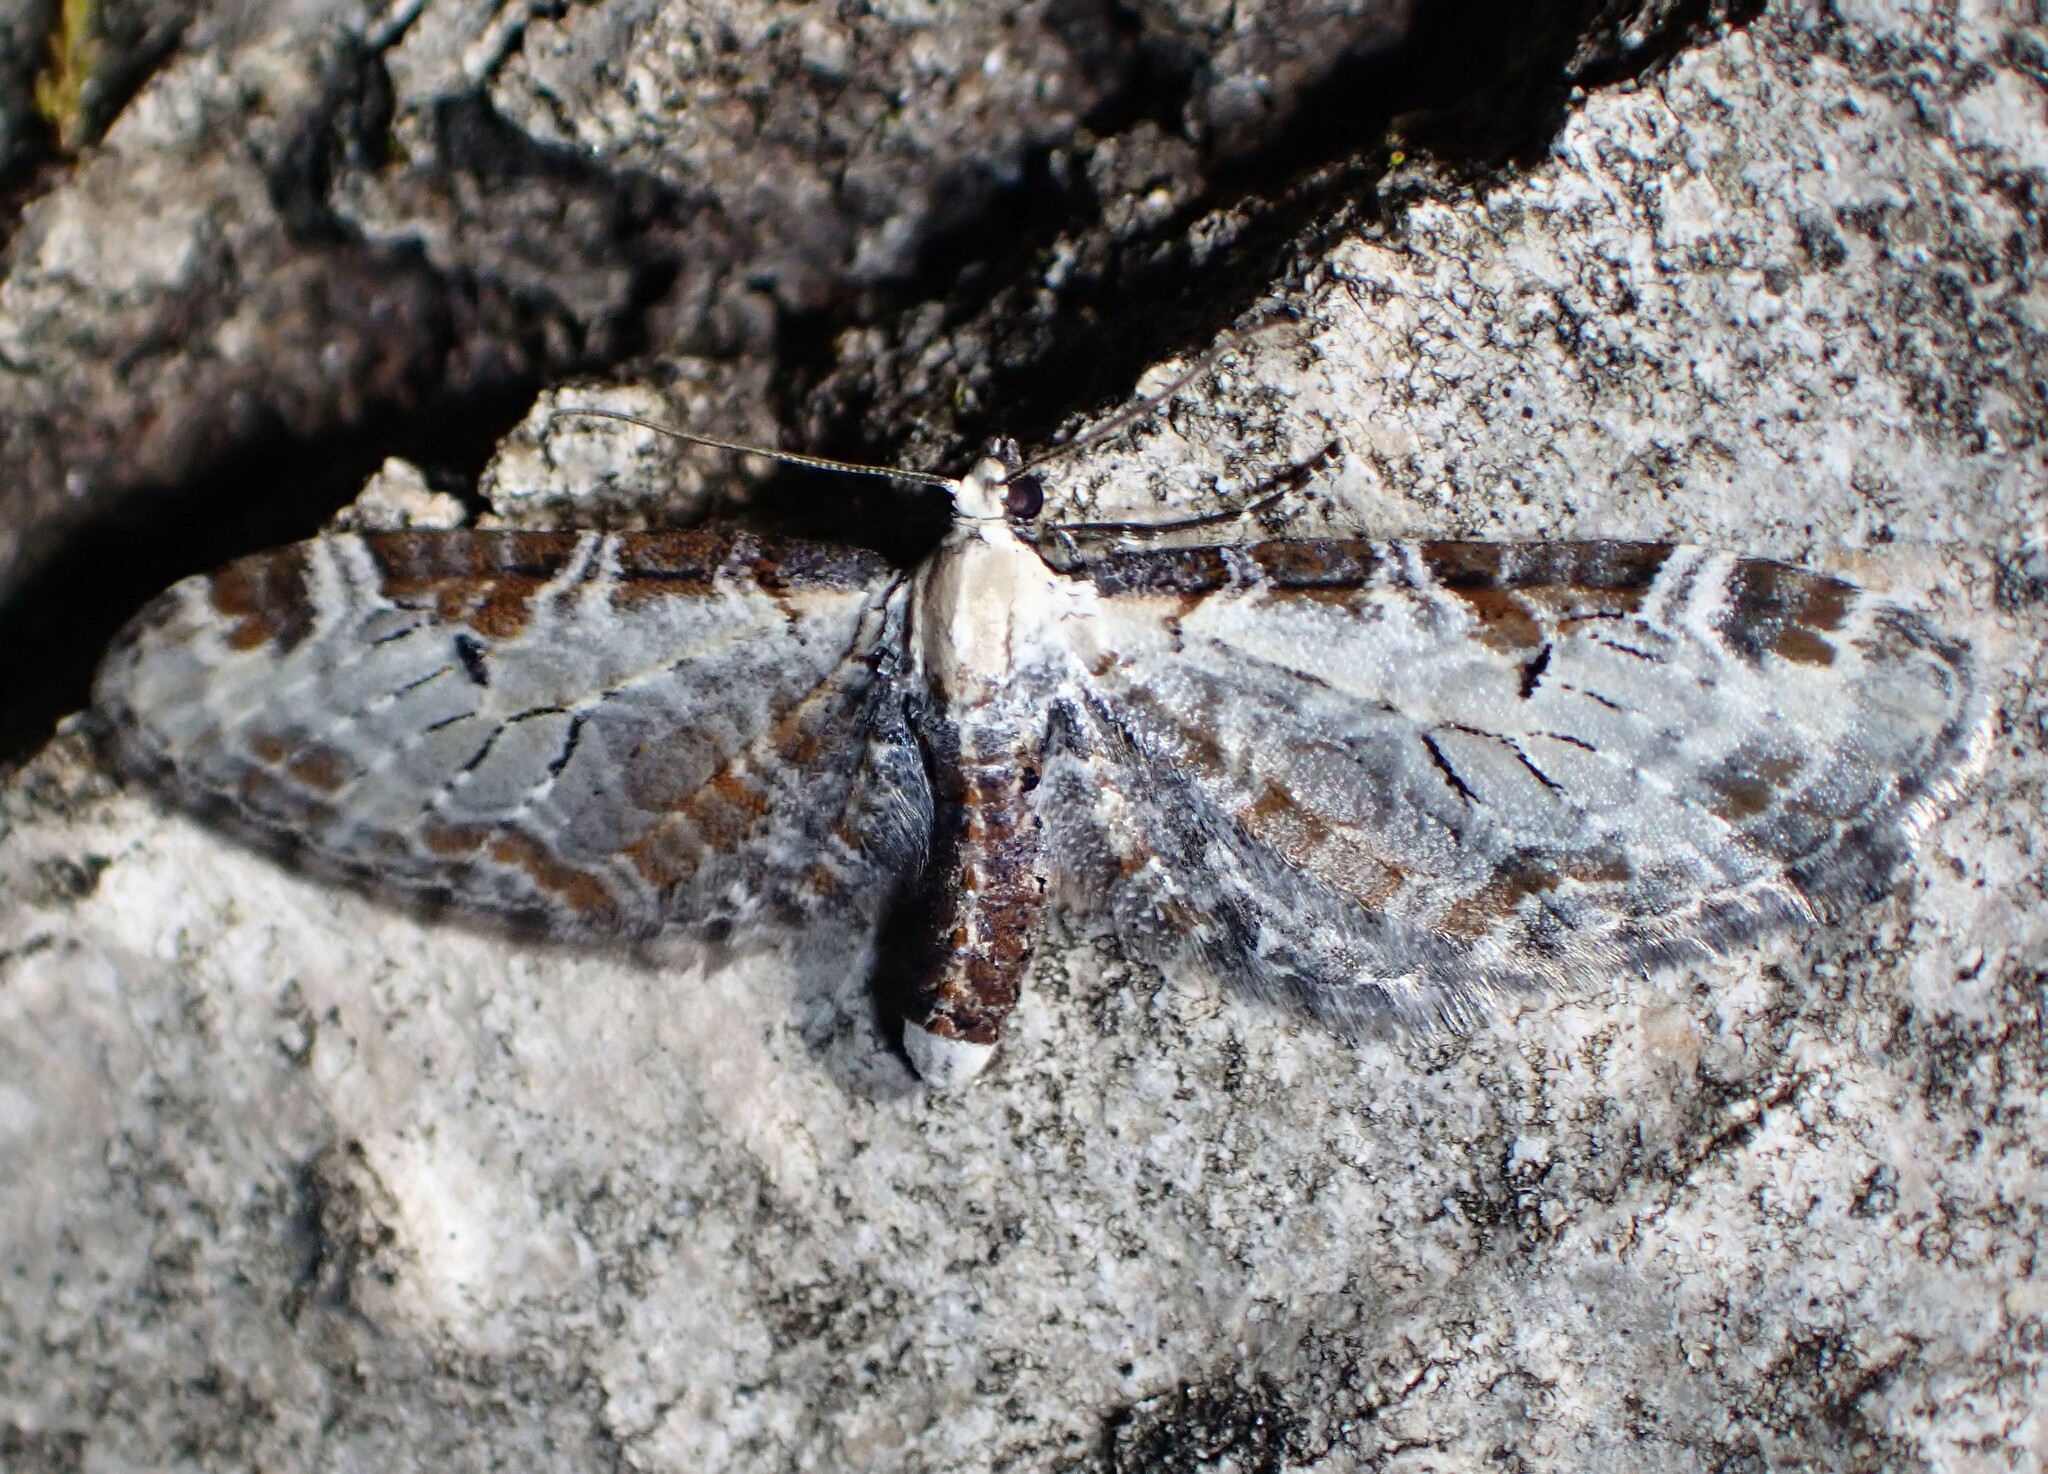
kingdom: Animalia
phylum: Arthropoda
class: Insecta
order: Lepidoptera
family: Geometridae
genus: Eupithecia
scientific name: Eupithecia ravocostaliata
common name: Great varigated pug
